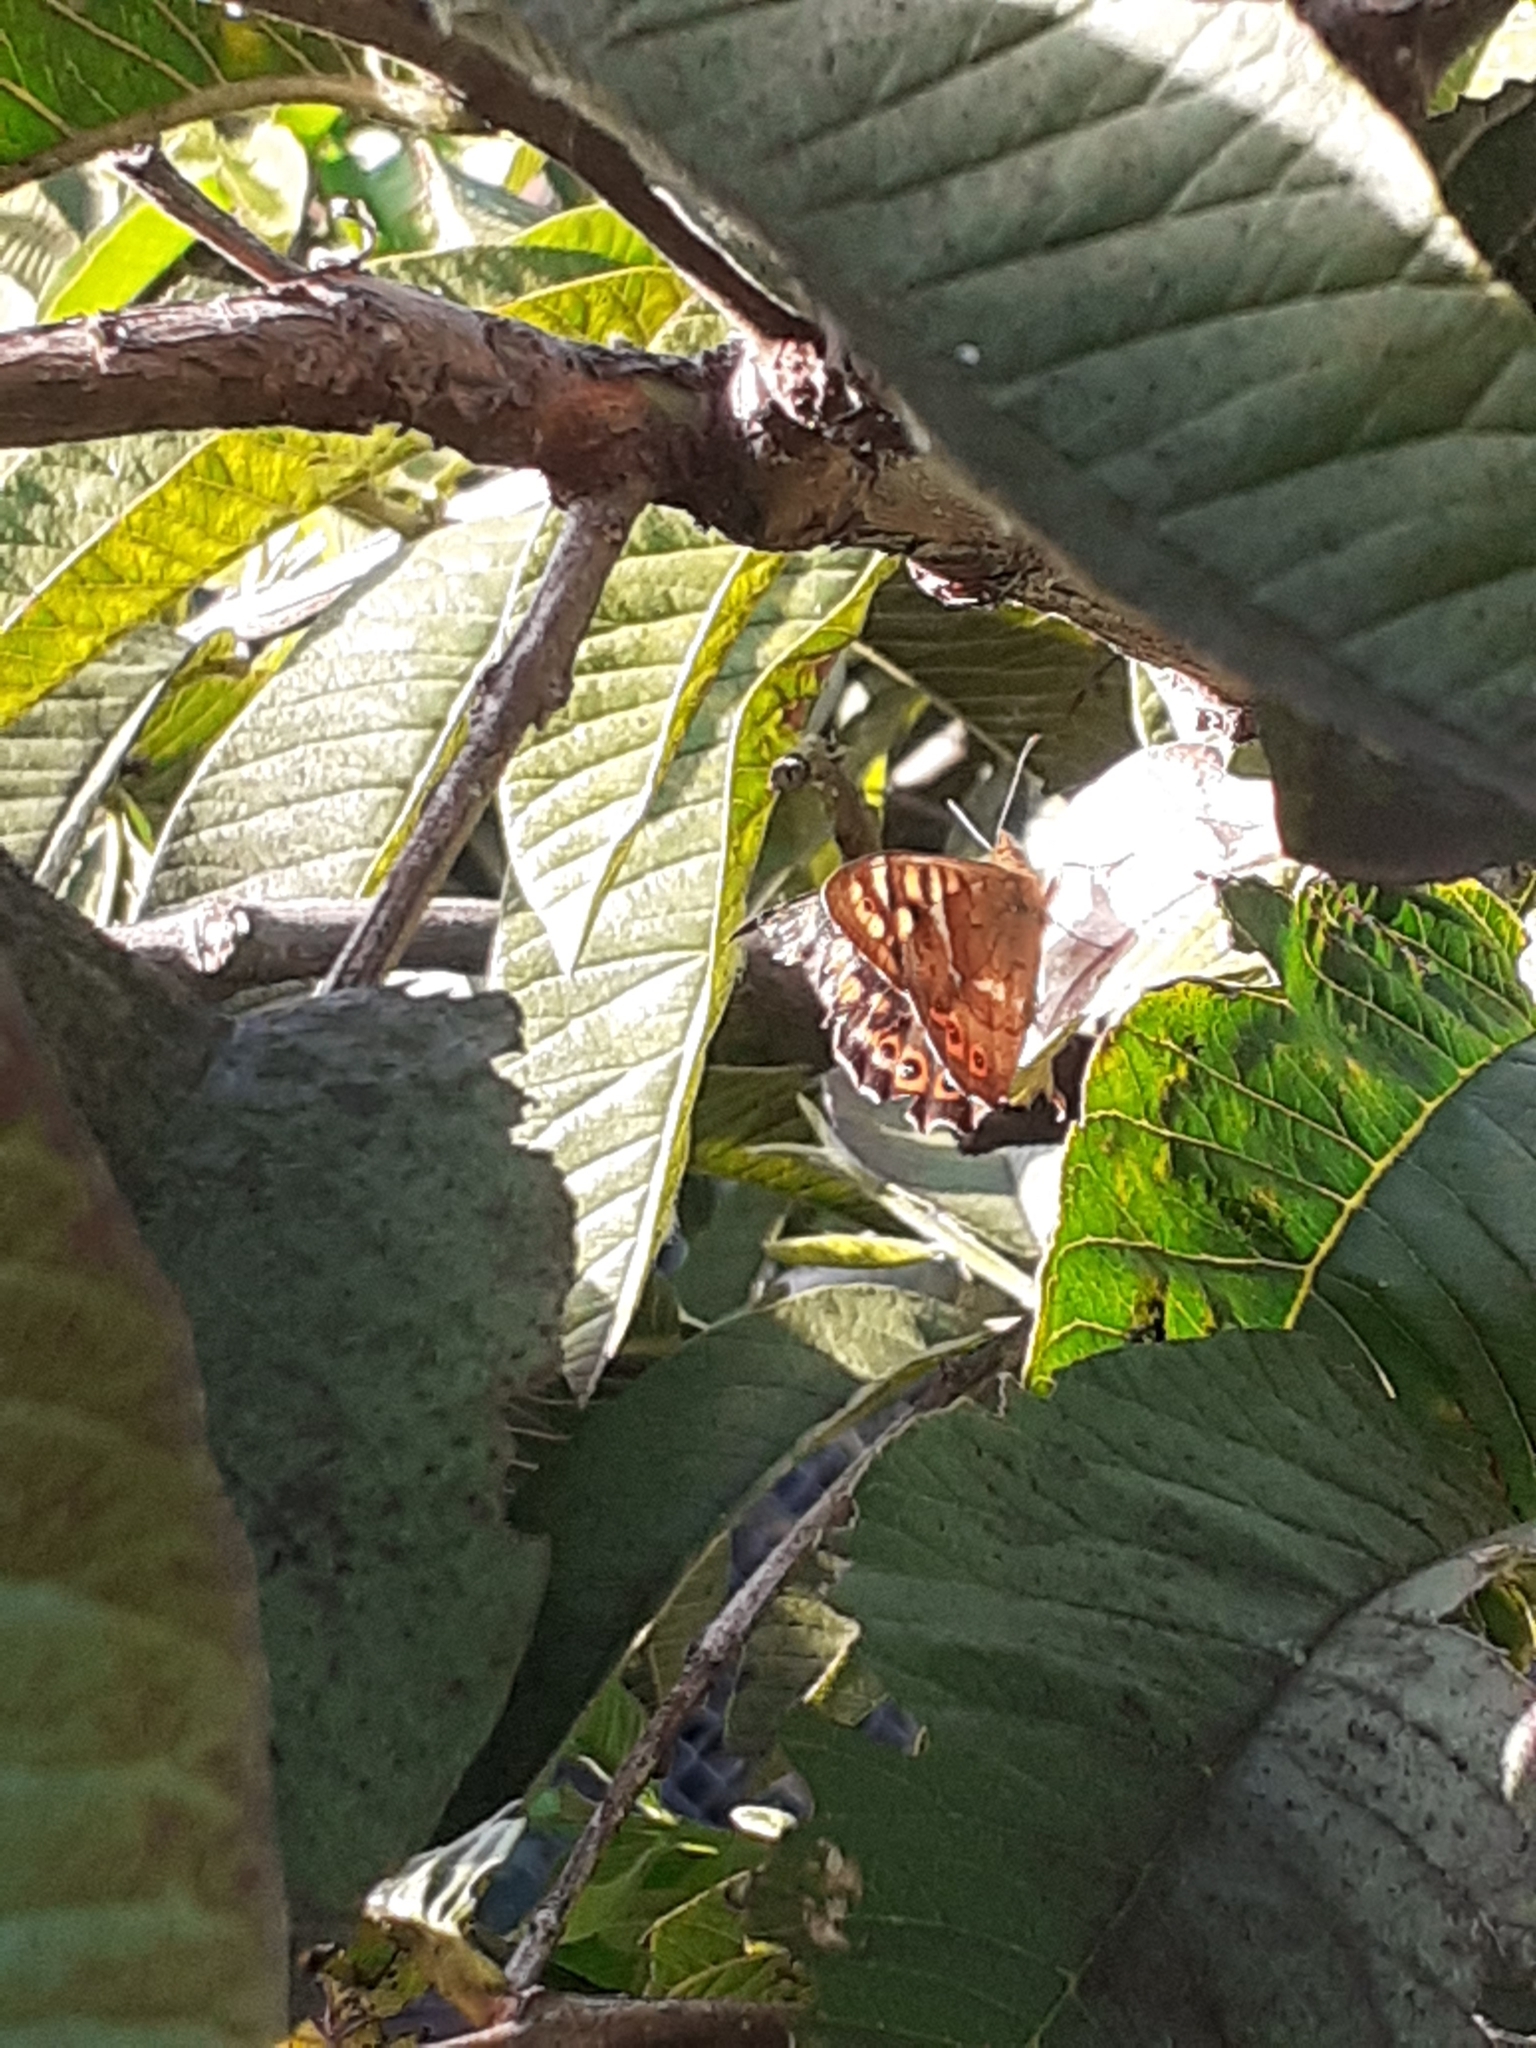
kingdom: Animalia
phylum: Arthropoda
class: Insecta
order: Lepidoptera
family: Nymphalidae
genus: Pararge
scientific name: Pararge aegeria
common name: Speckled wood
